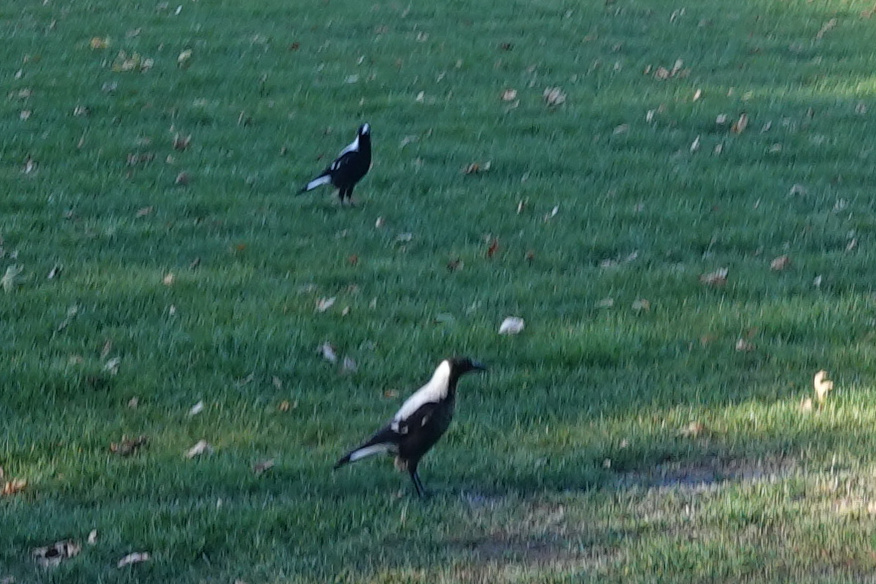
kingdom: Animalia
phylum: Chordata
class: Aves
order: Passeriformes
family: Cracticidae
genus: Gymnorhina
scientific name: Gymnorhina tibicen
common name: Australian magpie
